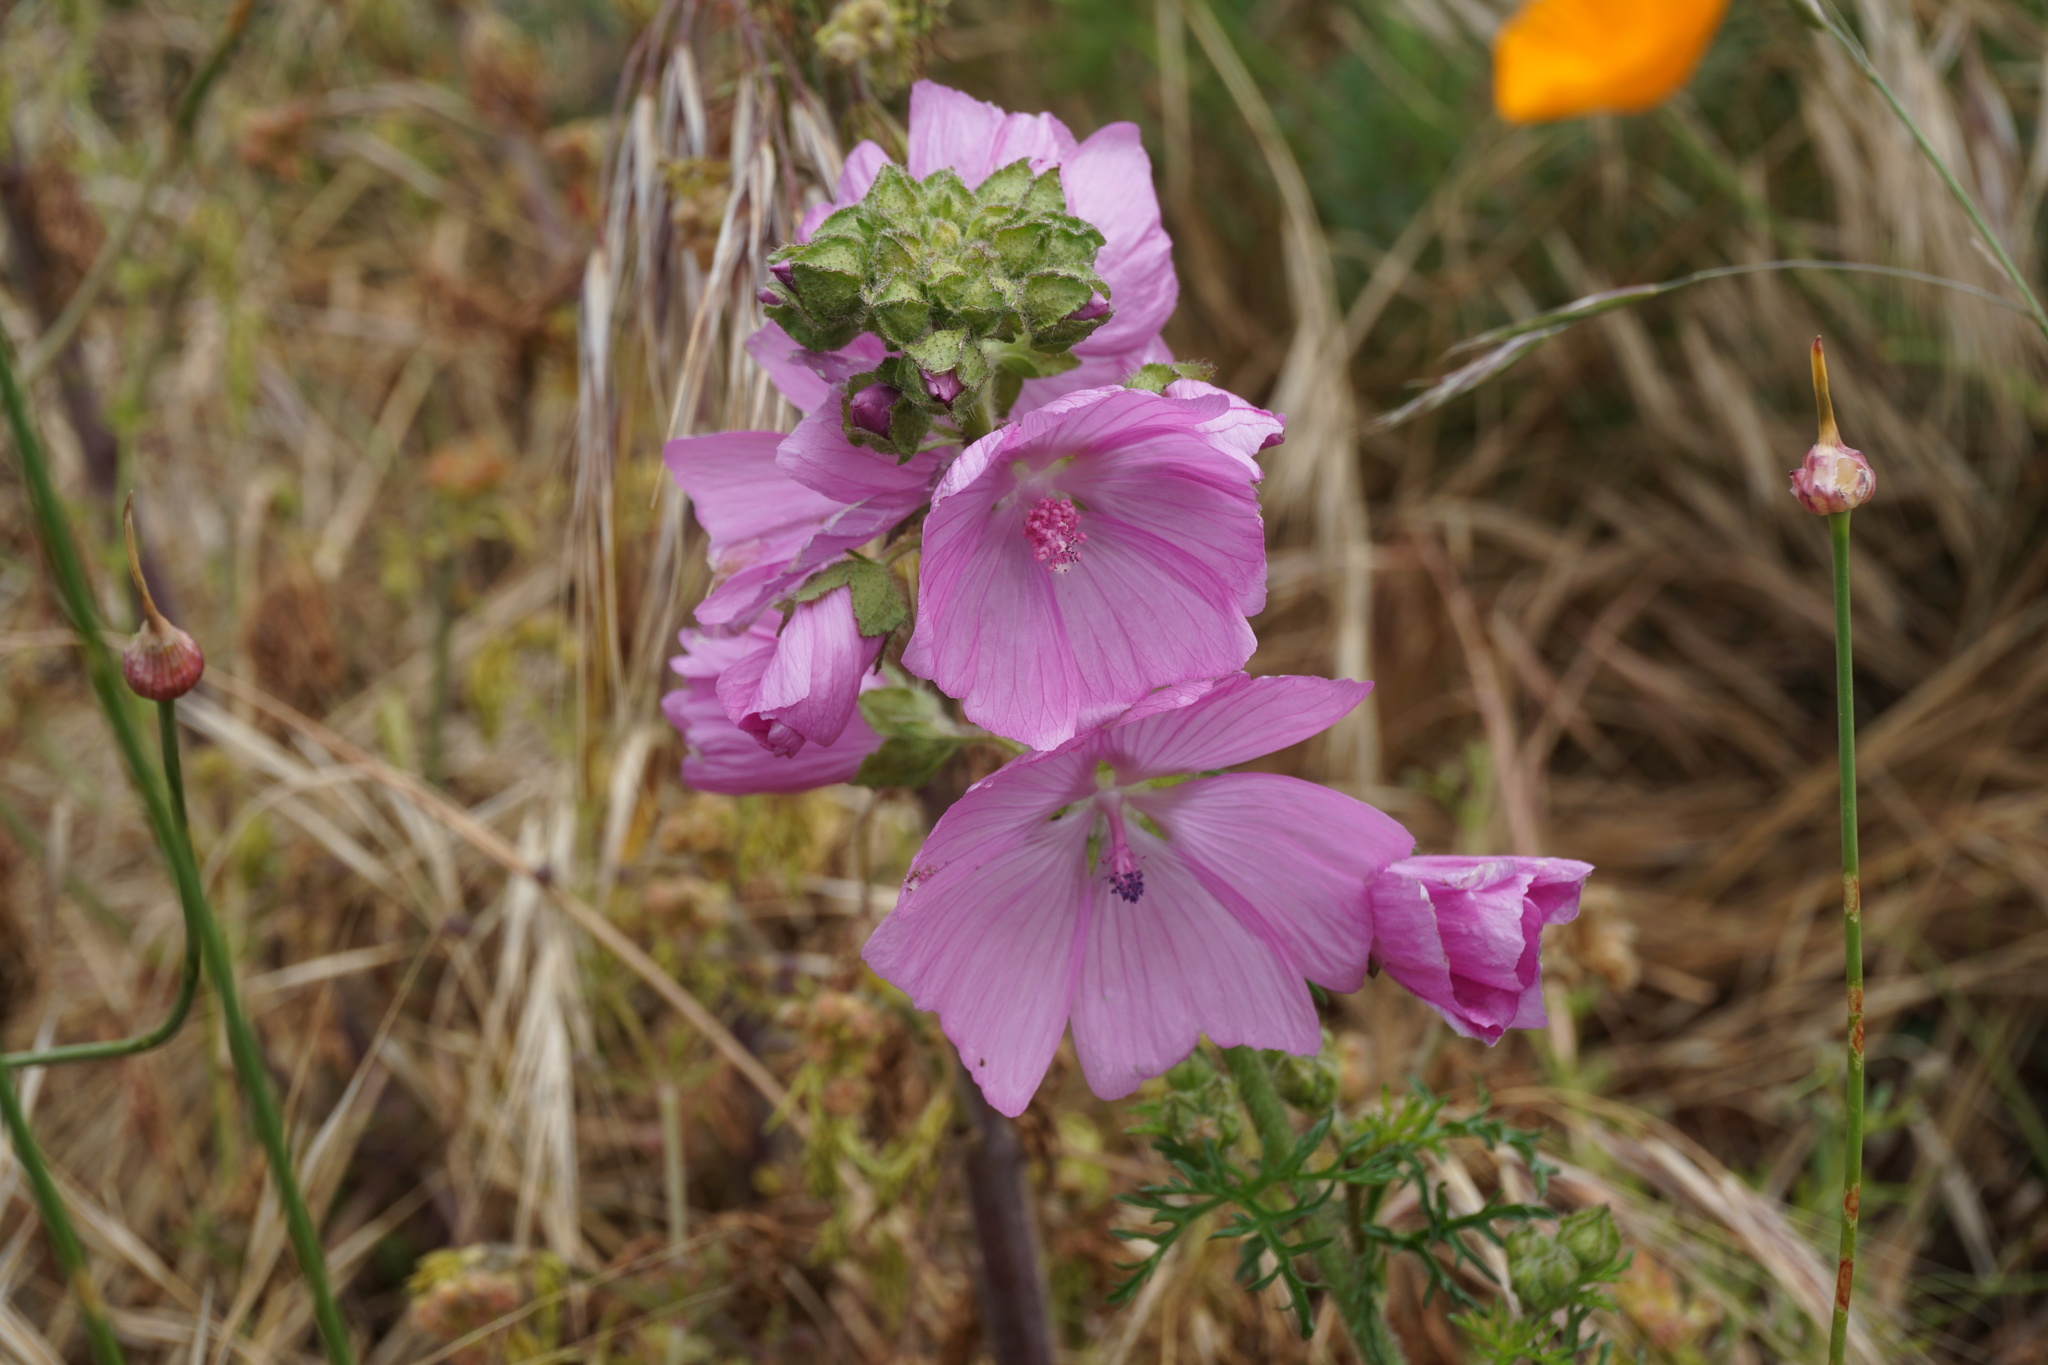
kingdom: Plantae
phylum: Tracheophyta
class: Magnoliopsida
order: Malvales
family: Malvaceae
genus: Malva
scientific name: Malva moschata
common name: Musk mallow
